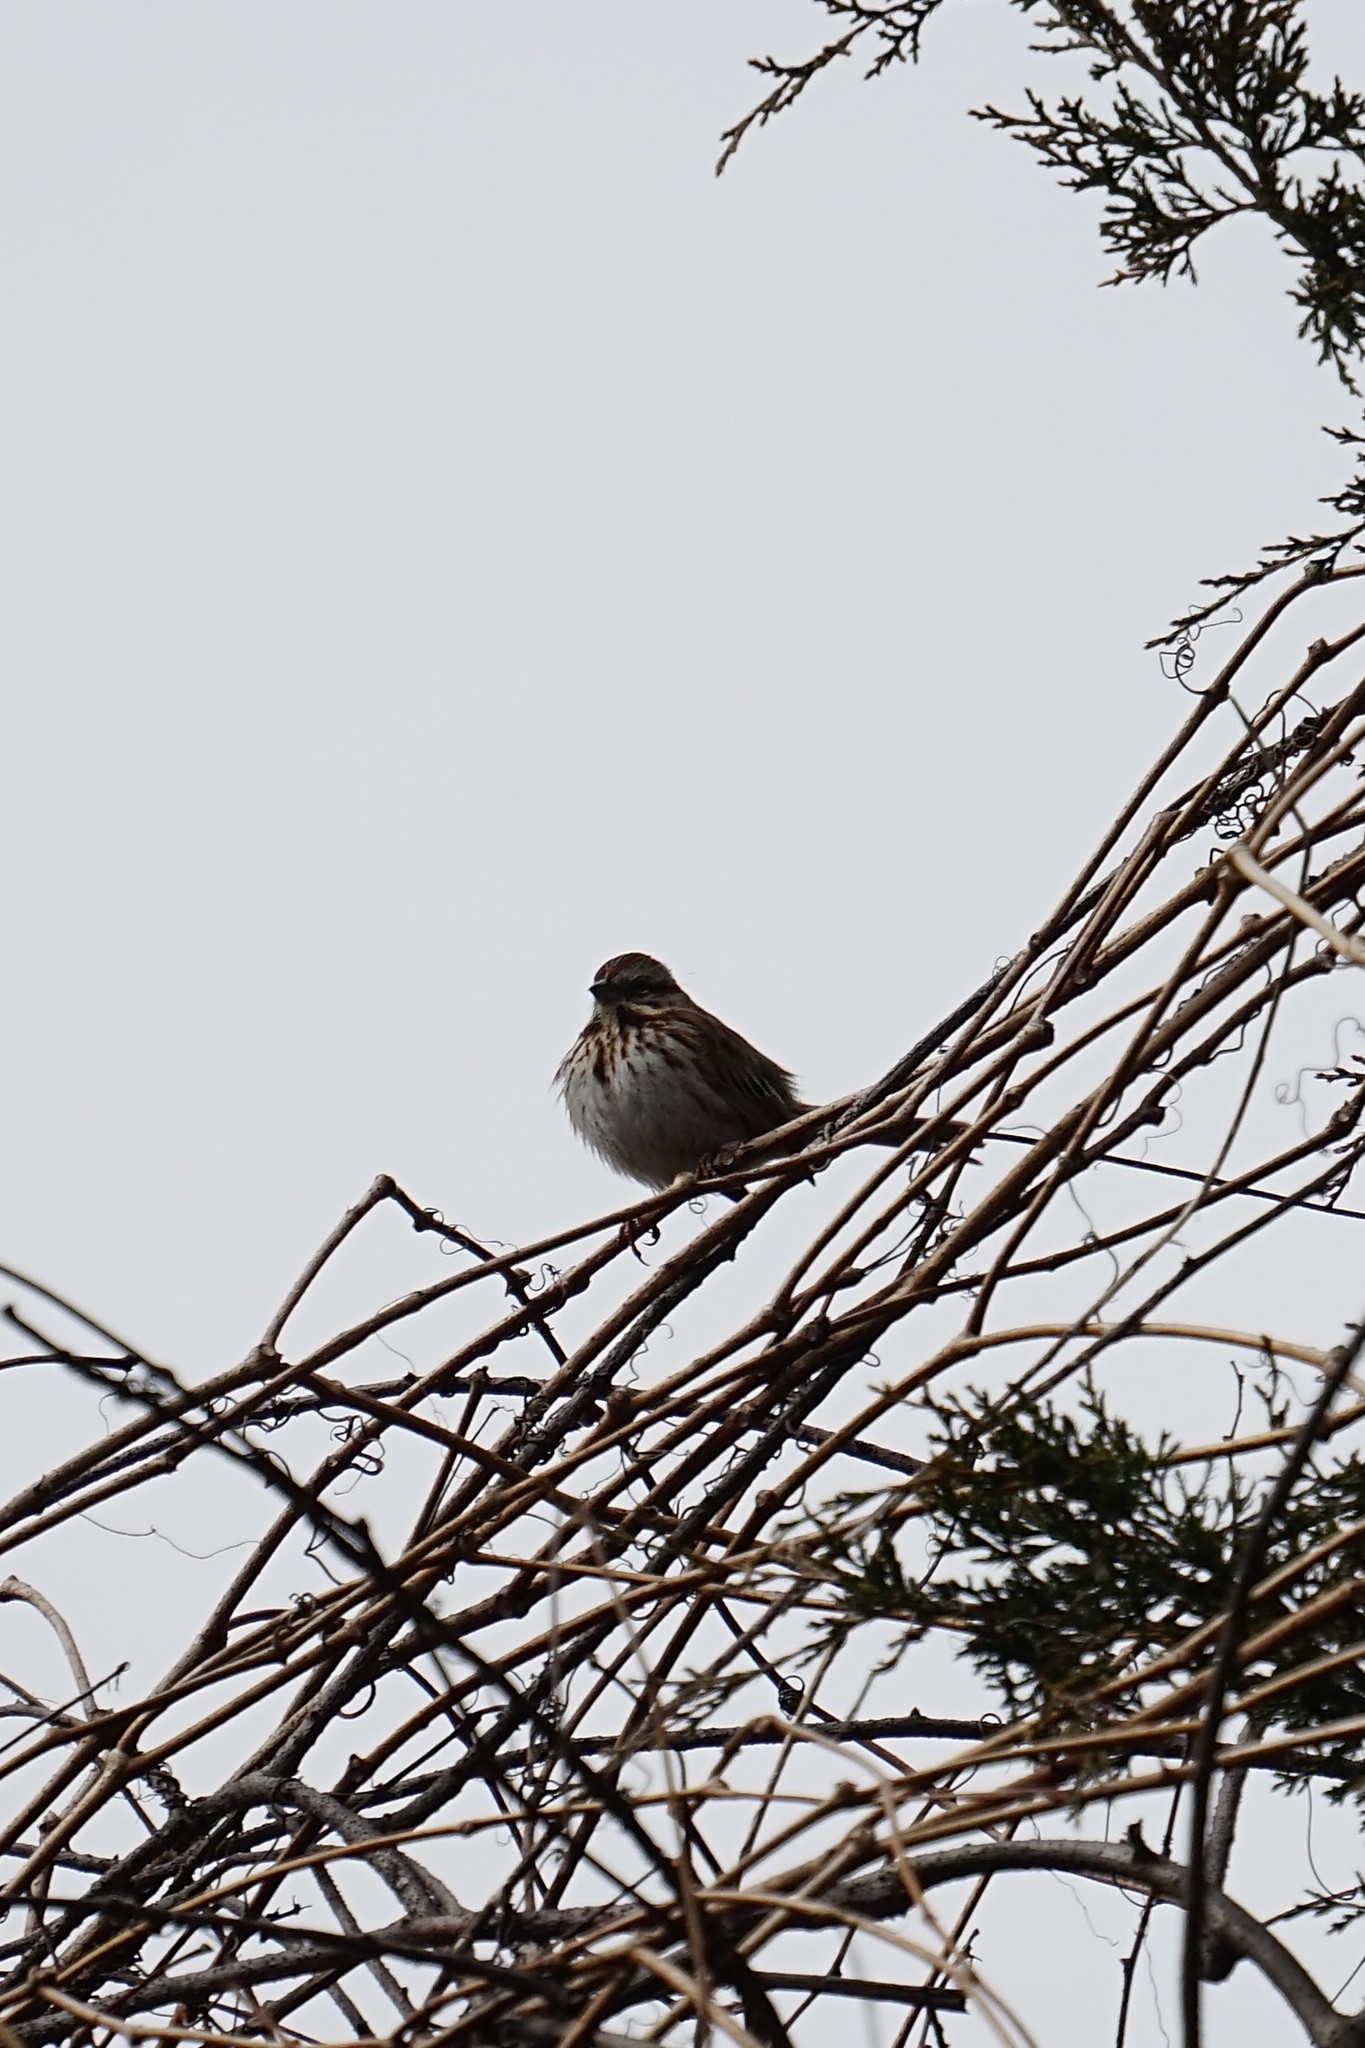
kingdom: Animalia
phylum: Chordata
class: Aves
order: Passeriformes
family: Passerellidae
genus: Melospiza
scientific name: Melospiza melodia
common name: Song sparrow
